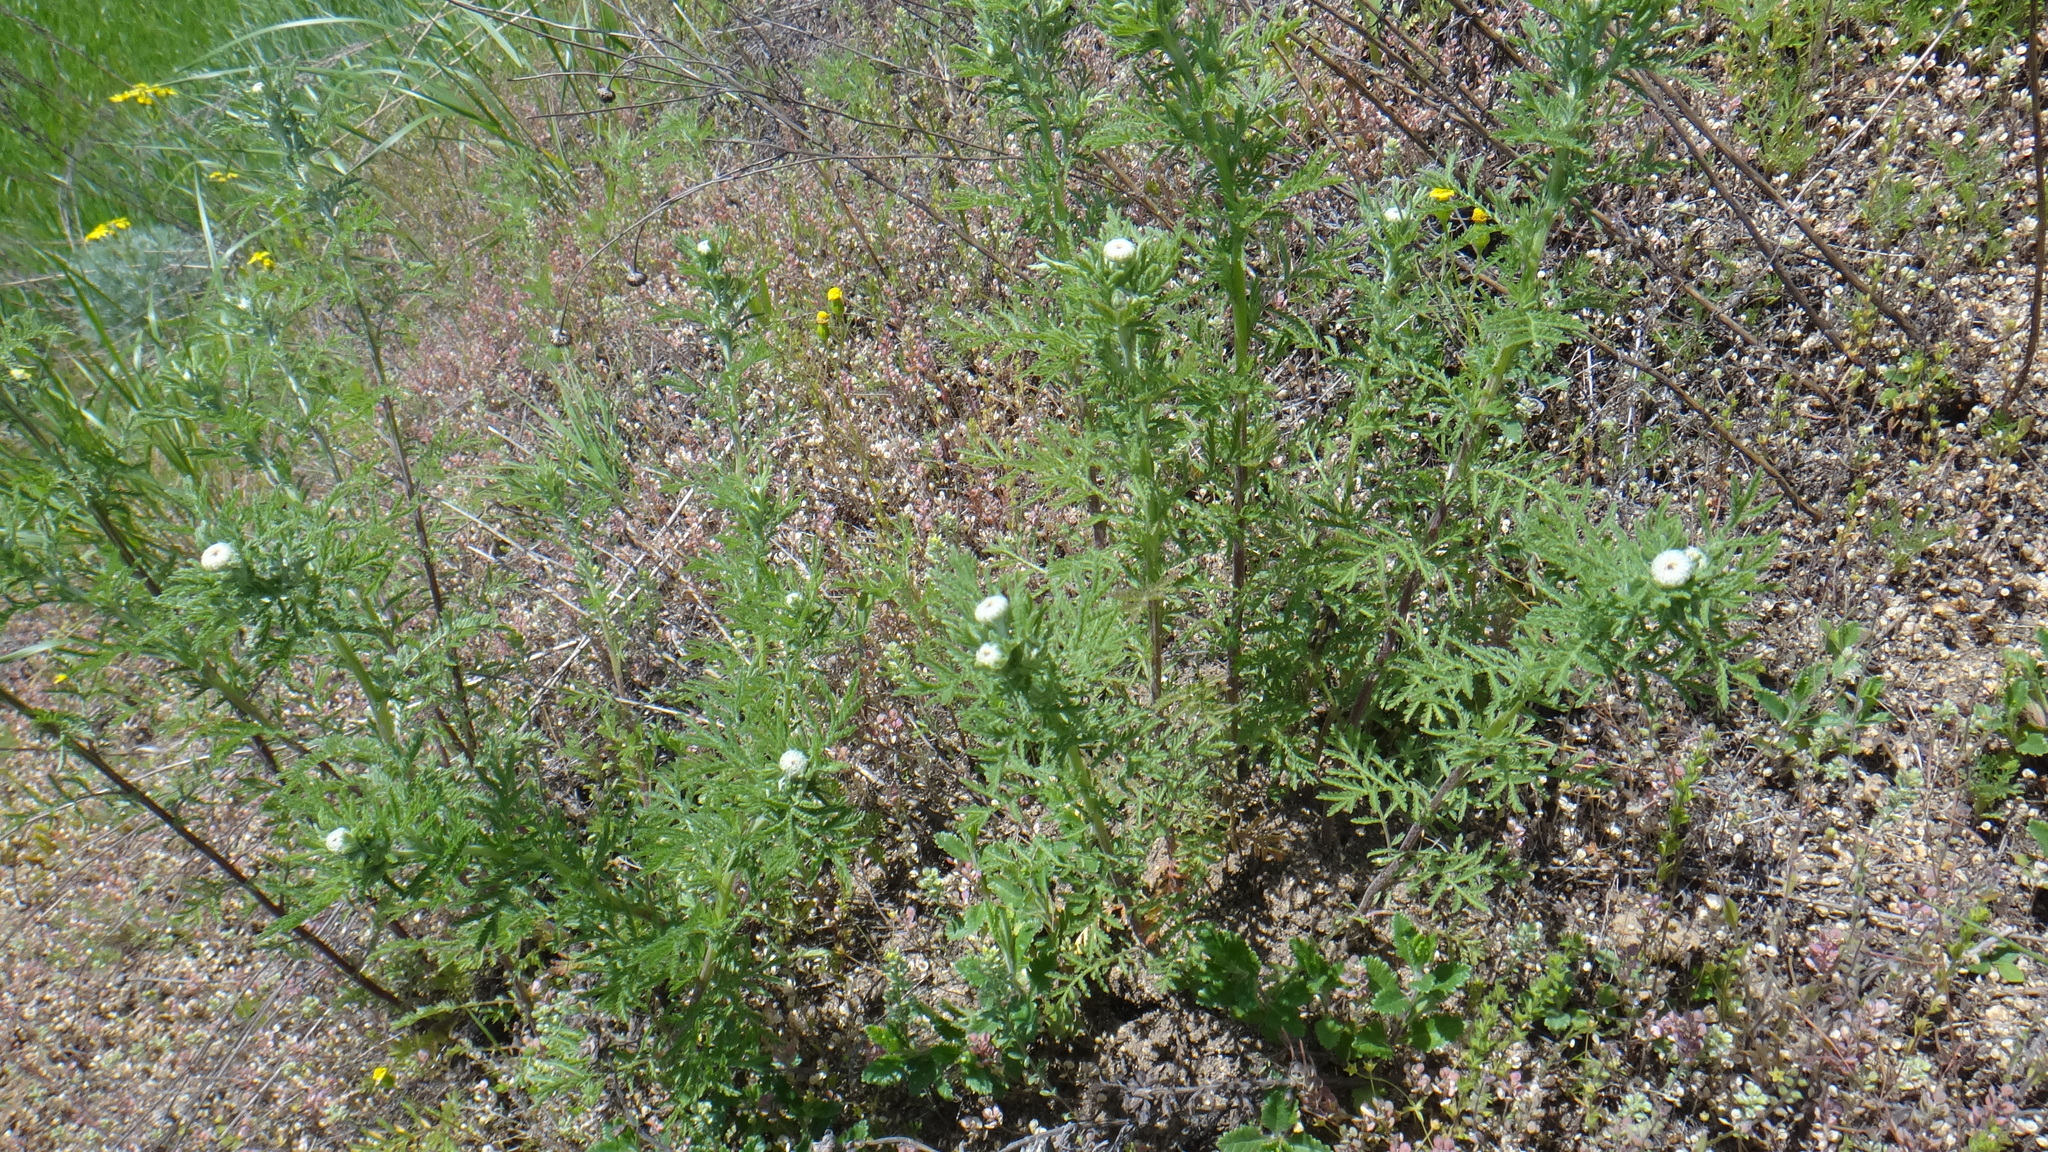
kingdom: Plantae
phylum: Tracheophyta
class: Magnoliopsida
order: Asterales
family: Asteraceae
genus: Cota
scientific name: Cota tinctoria
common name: Golden chamomile
